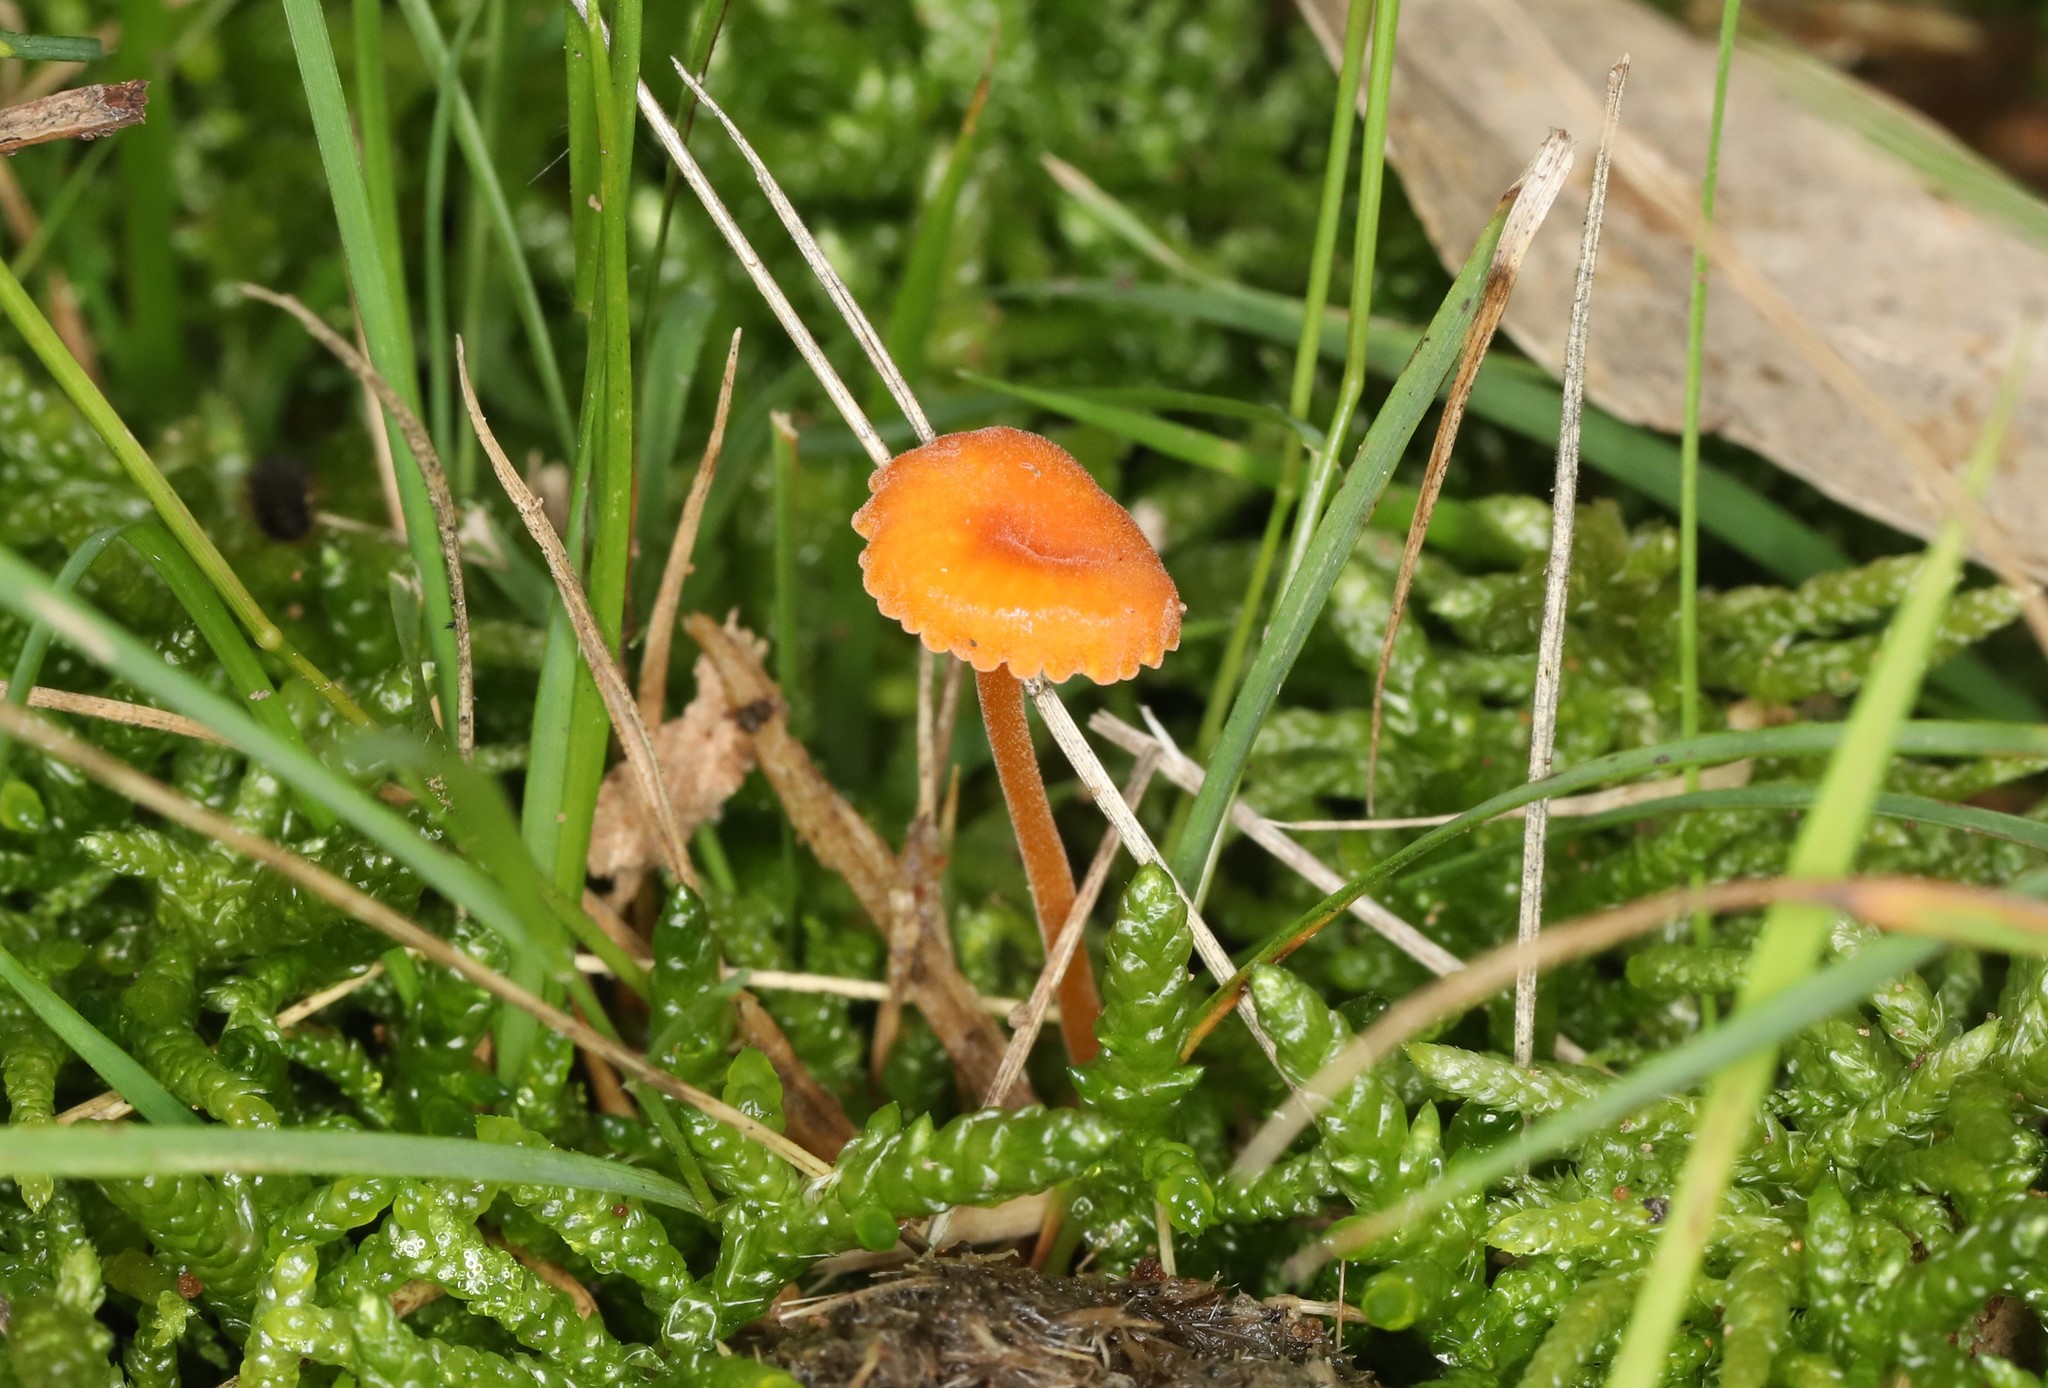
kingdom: Fungi
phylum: Basidiomycota
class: Agaricomycetes
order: Hymenochaetales
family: Rickenellaceae
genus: Rickenella
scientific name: Rickenella fibula
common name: Orange mosscap
